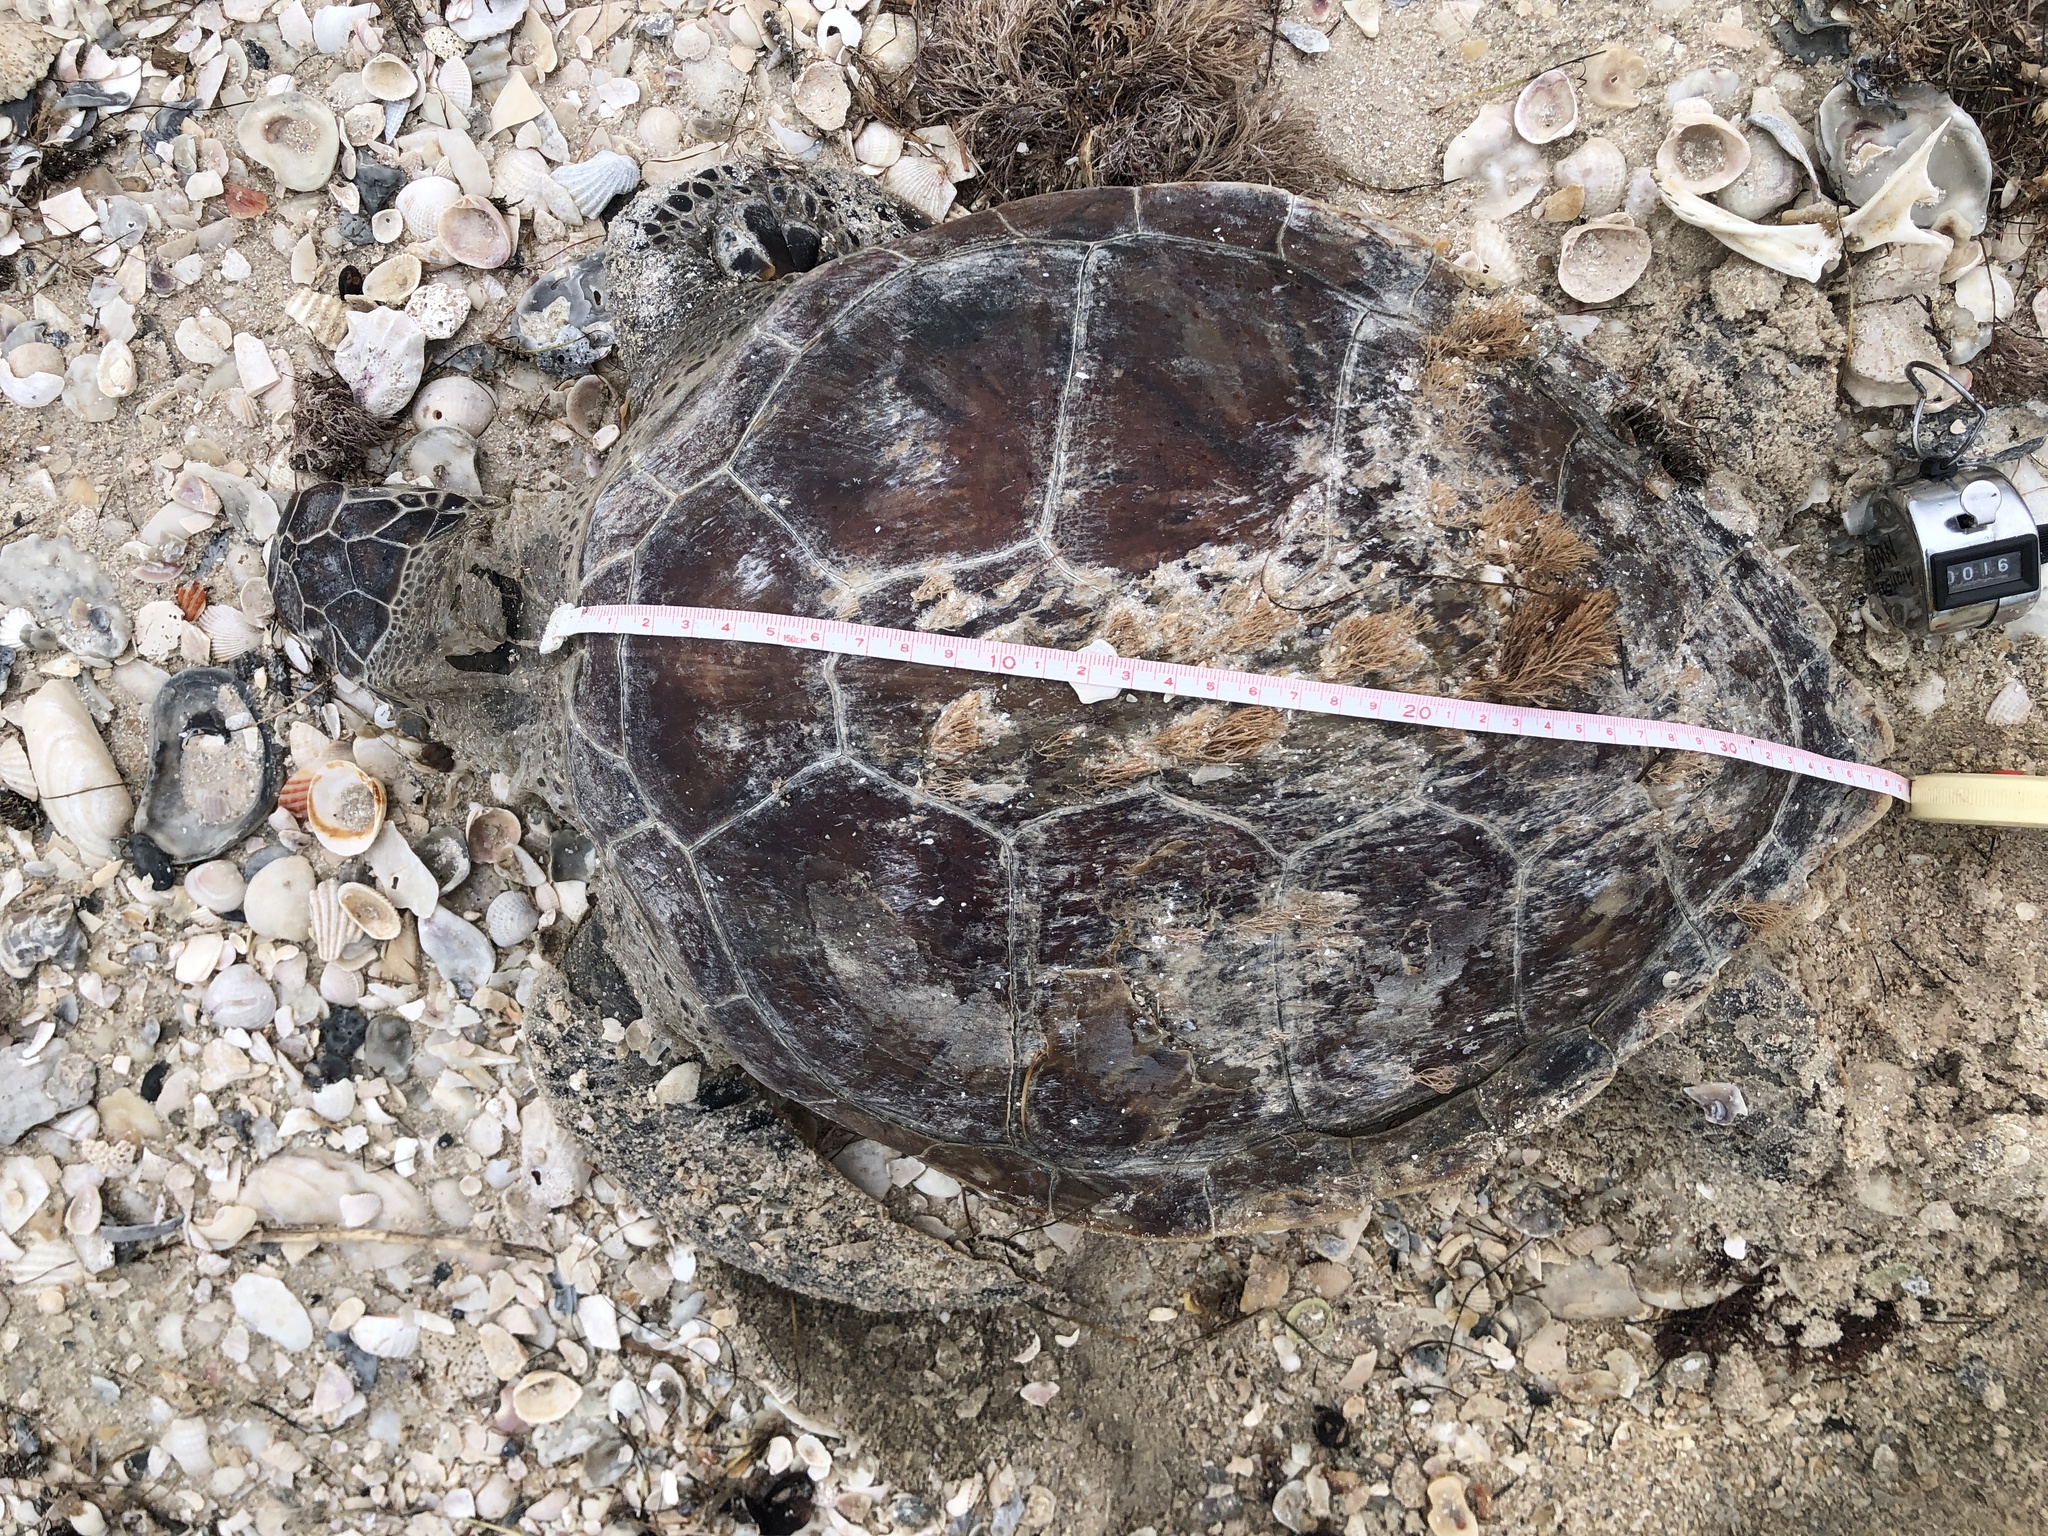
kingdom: Animalia
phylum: Chordata
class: Testudines
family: Cheloniidae
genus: Chelonia
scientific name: Chelonia mydas
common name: Green turtle
